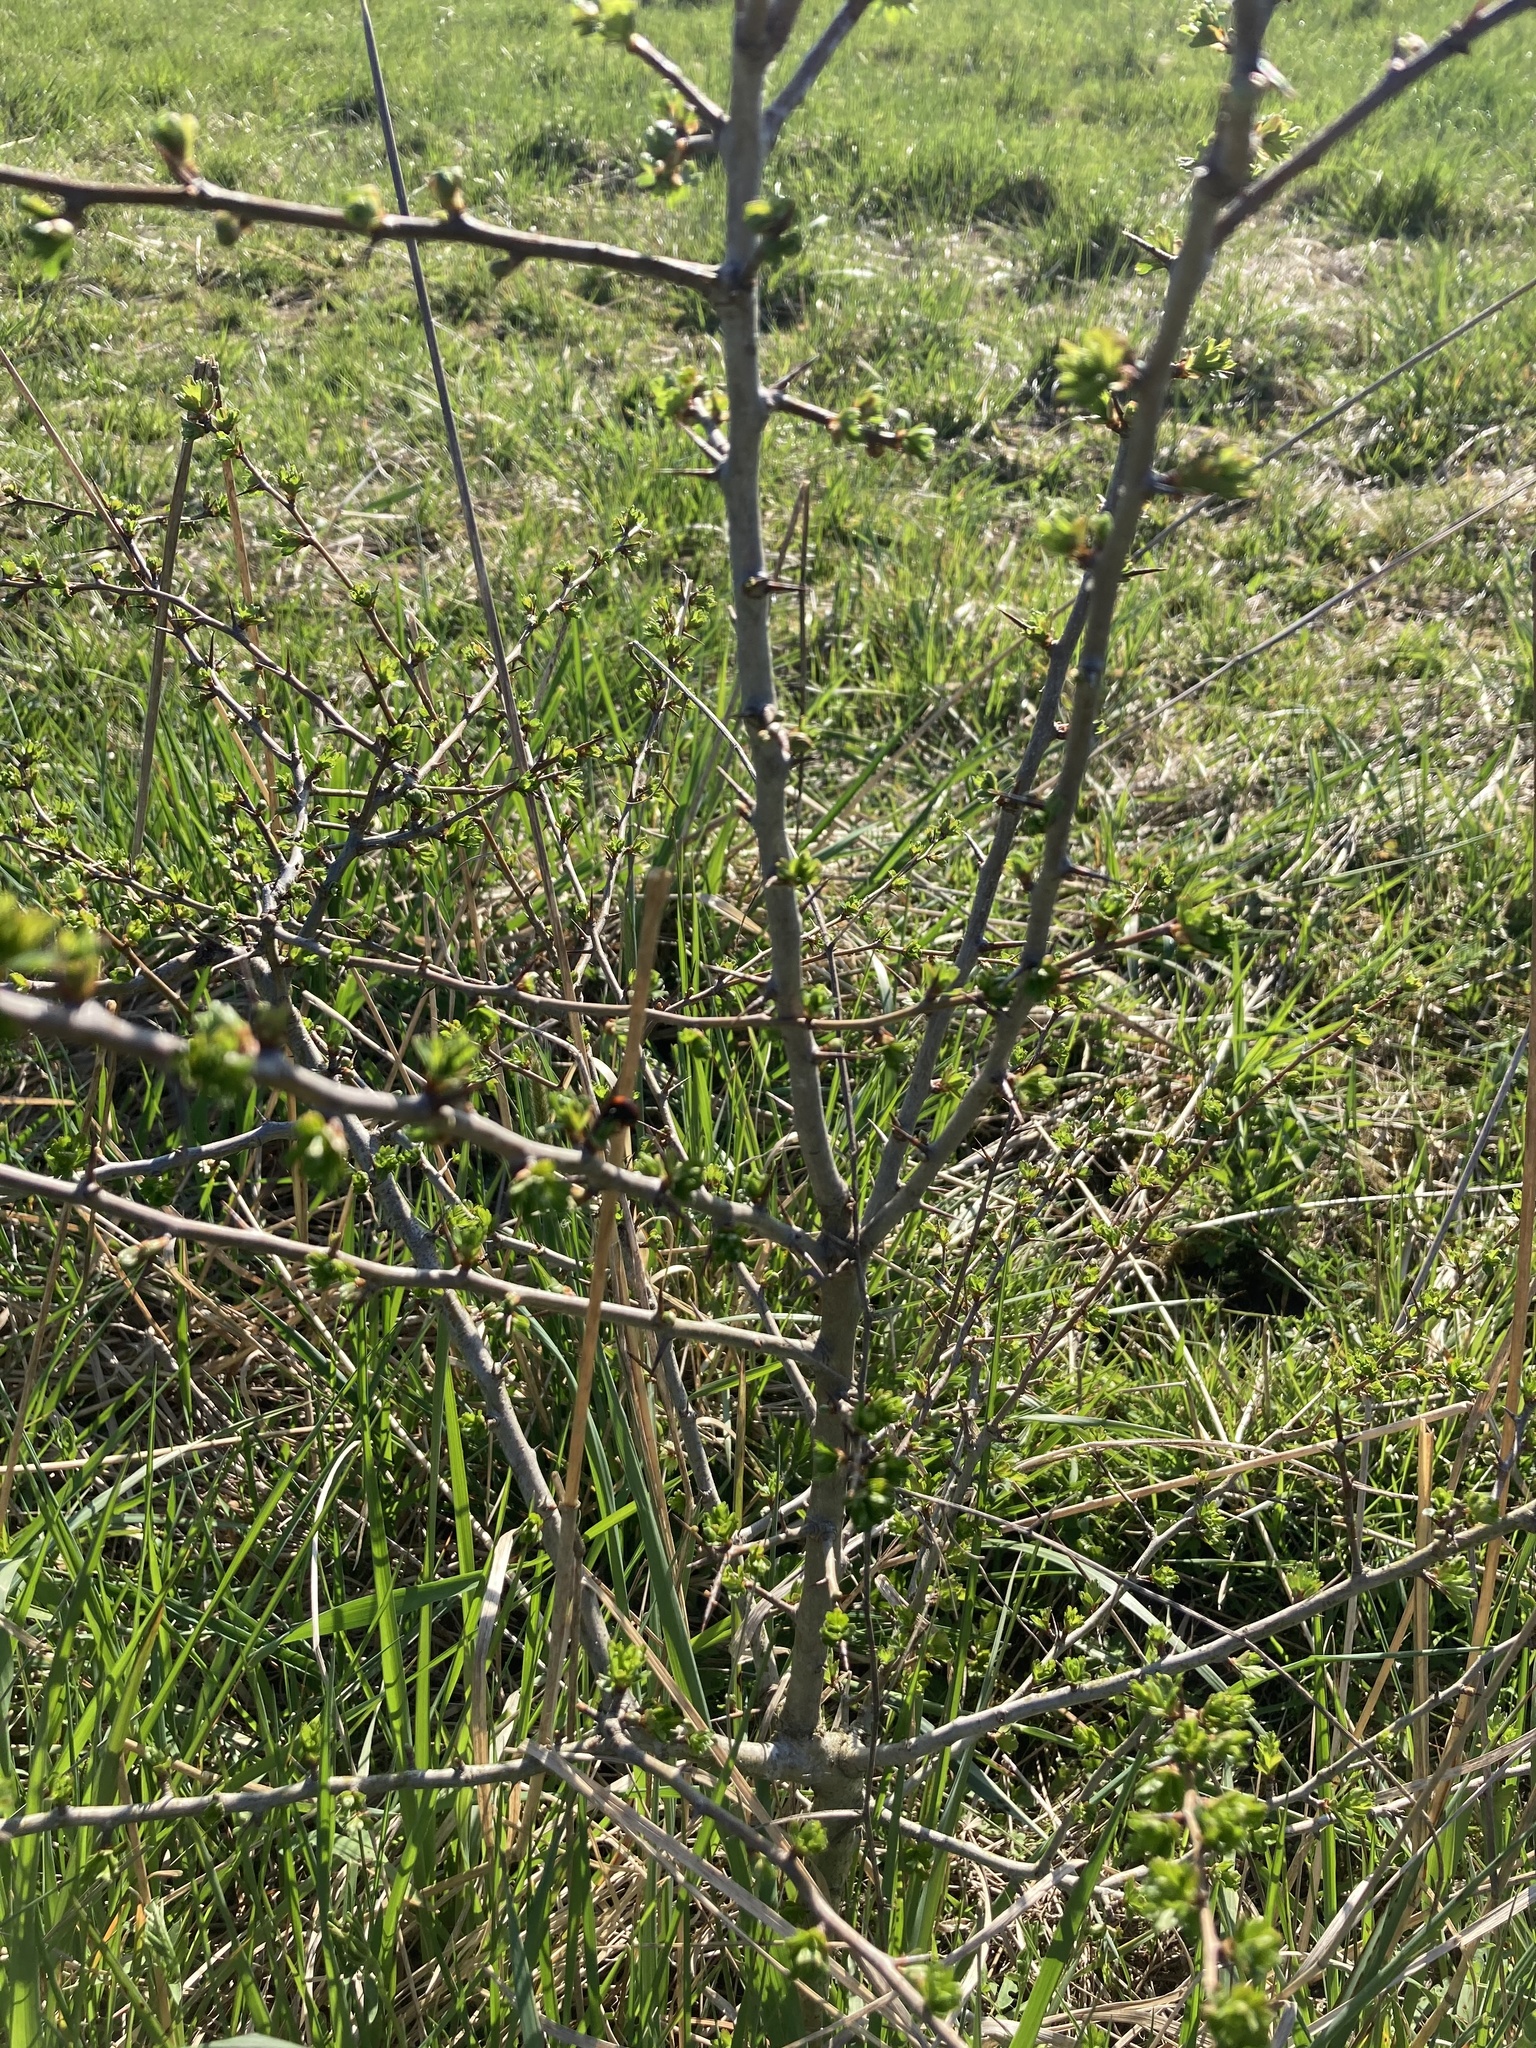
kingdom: Plantae
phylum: Tracheophyta
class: Magnoliopsida
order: Rosales
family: Rosaceae
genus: Crataegus
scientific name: Crataegus monogyna
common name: Hawthorn
